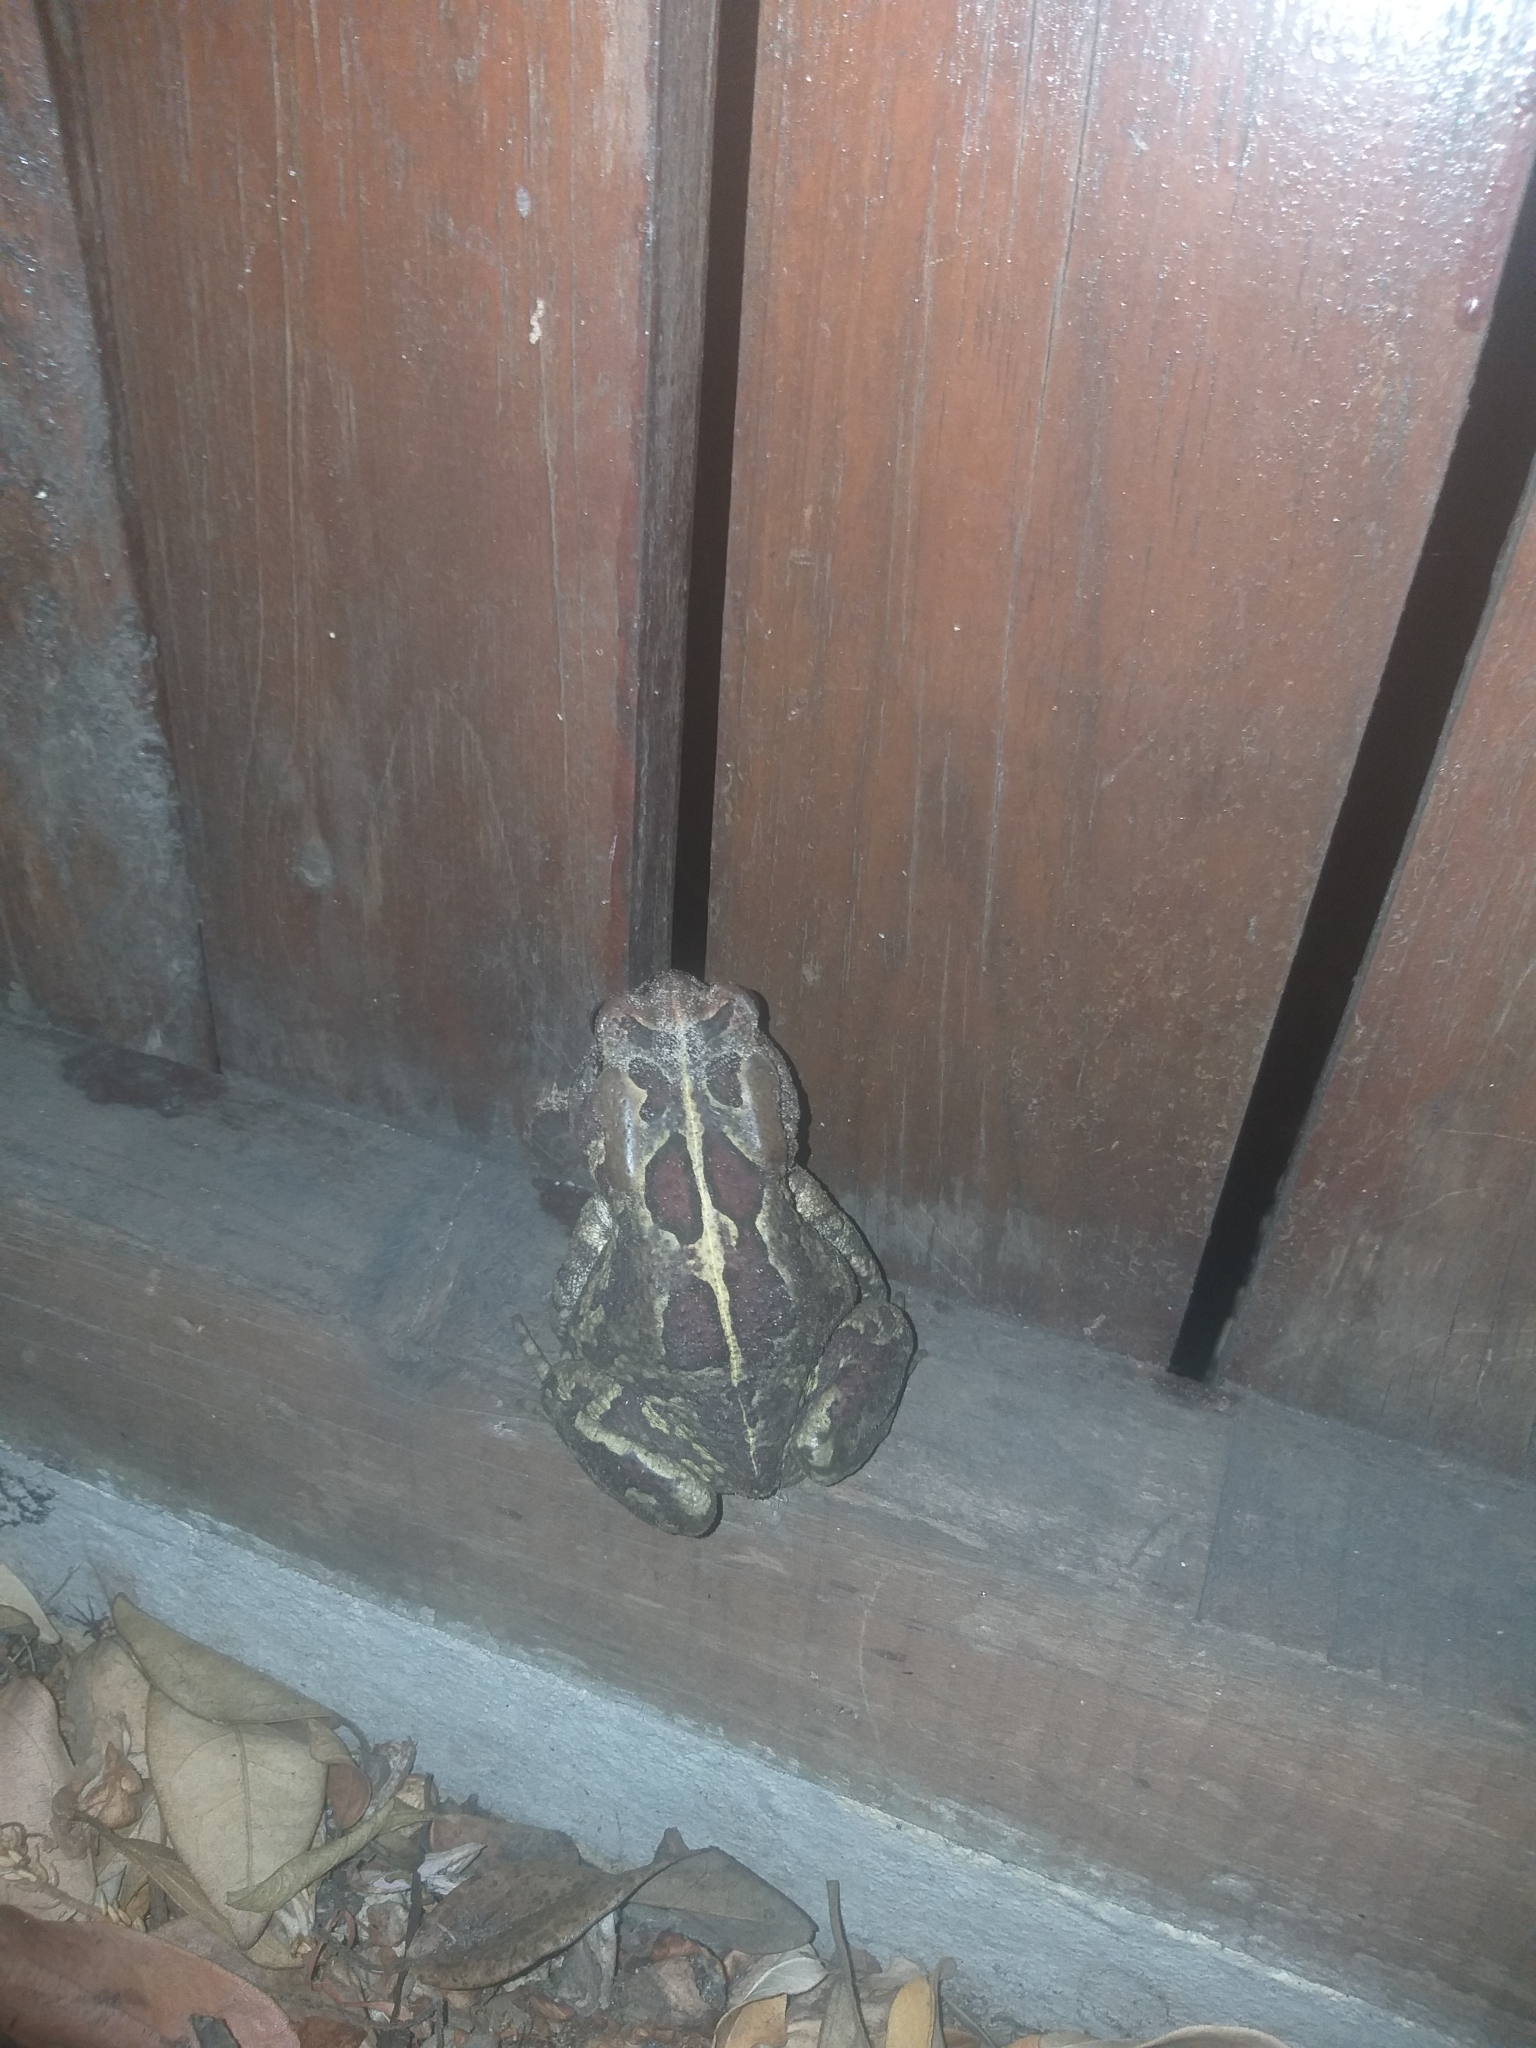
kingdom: Animalia
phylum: Chordata
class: Amphibia
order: Anura
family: Bufonidae
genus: Sclerophrys
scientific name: Sclerophrys pantherina
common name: Panther toad
